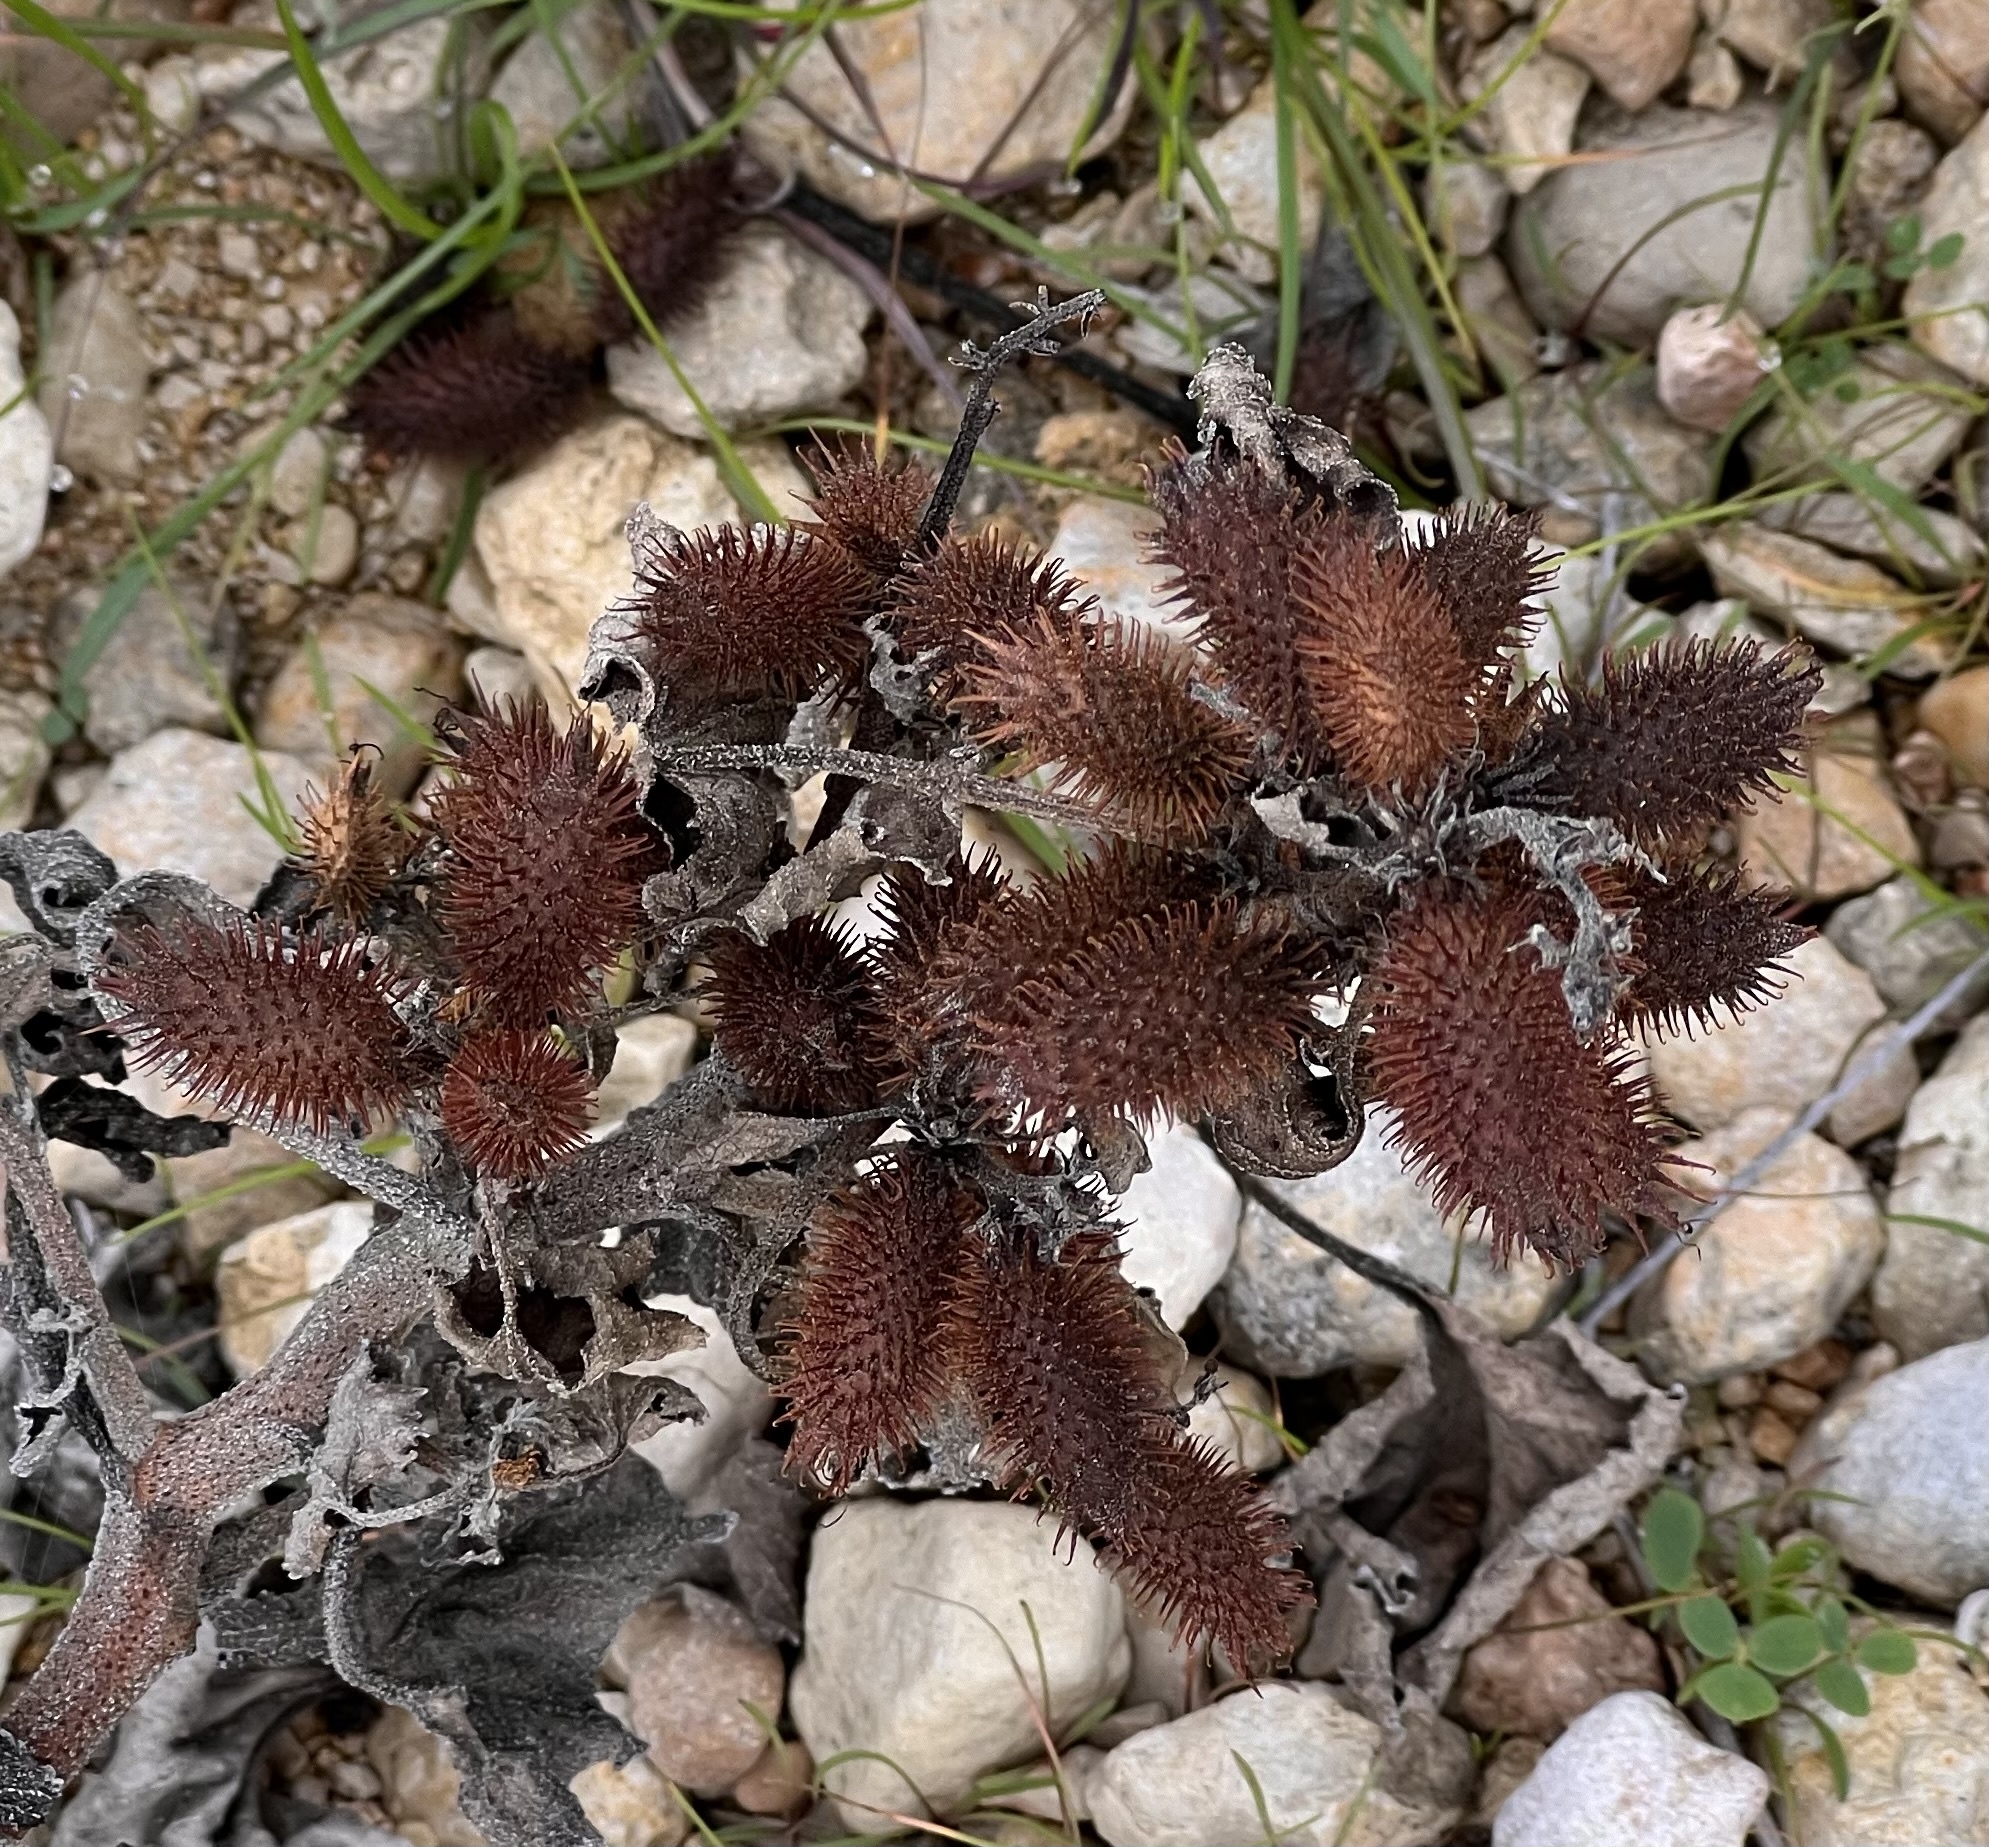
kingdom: Plantae
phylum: Tracheophyta
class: Magnoliopsida
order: Asterales
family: Asteraceae
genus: Xanthium
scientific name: Xanthium strumarium
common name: Rough cocklebur
